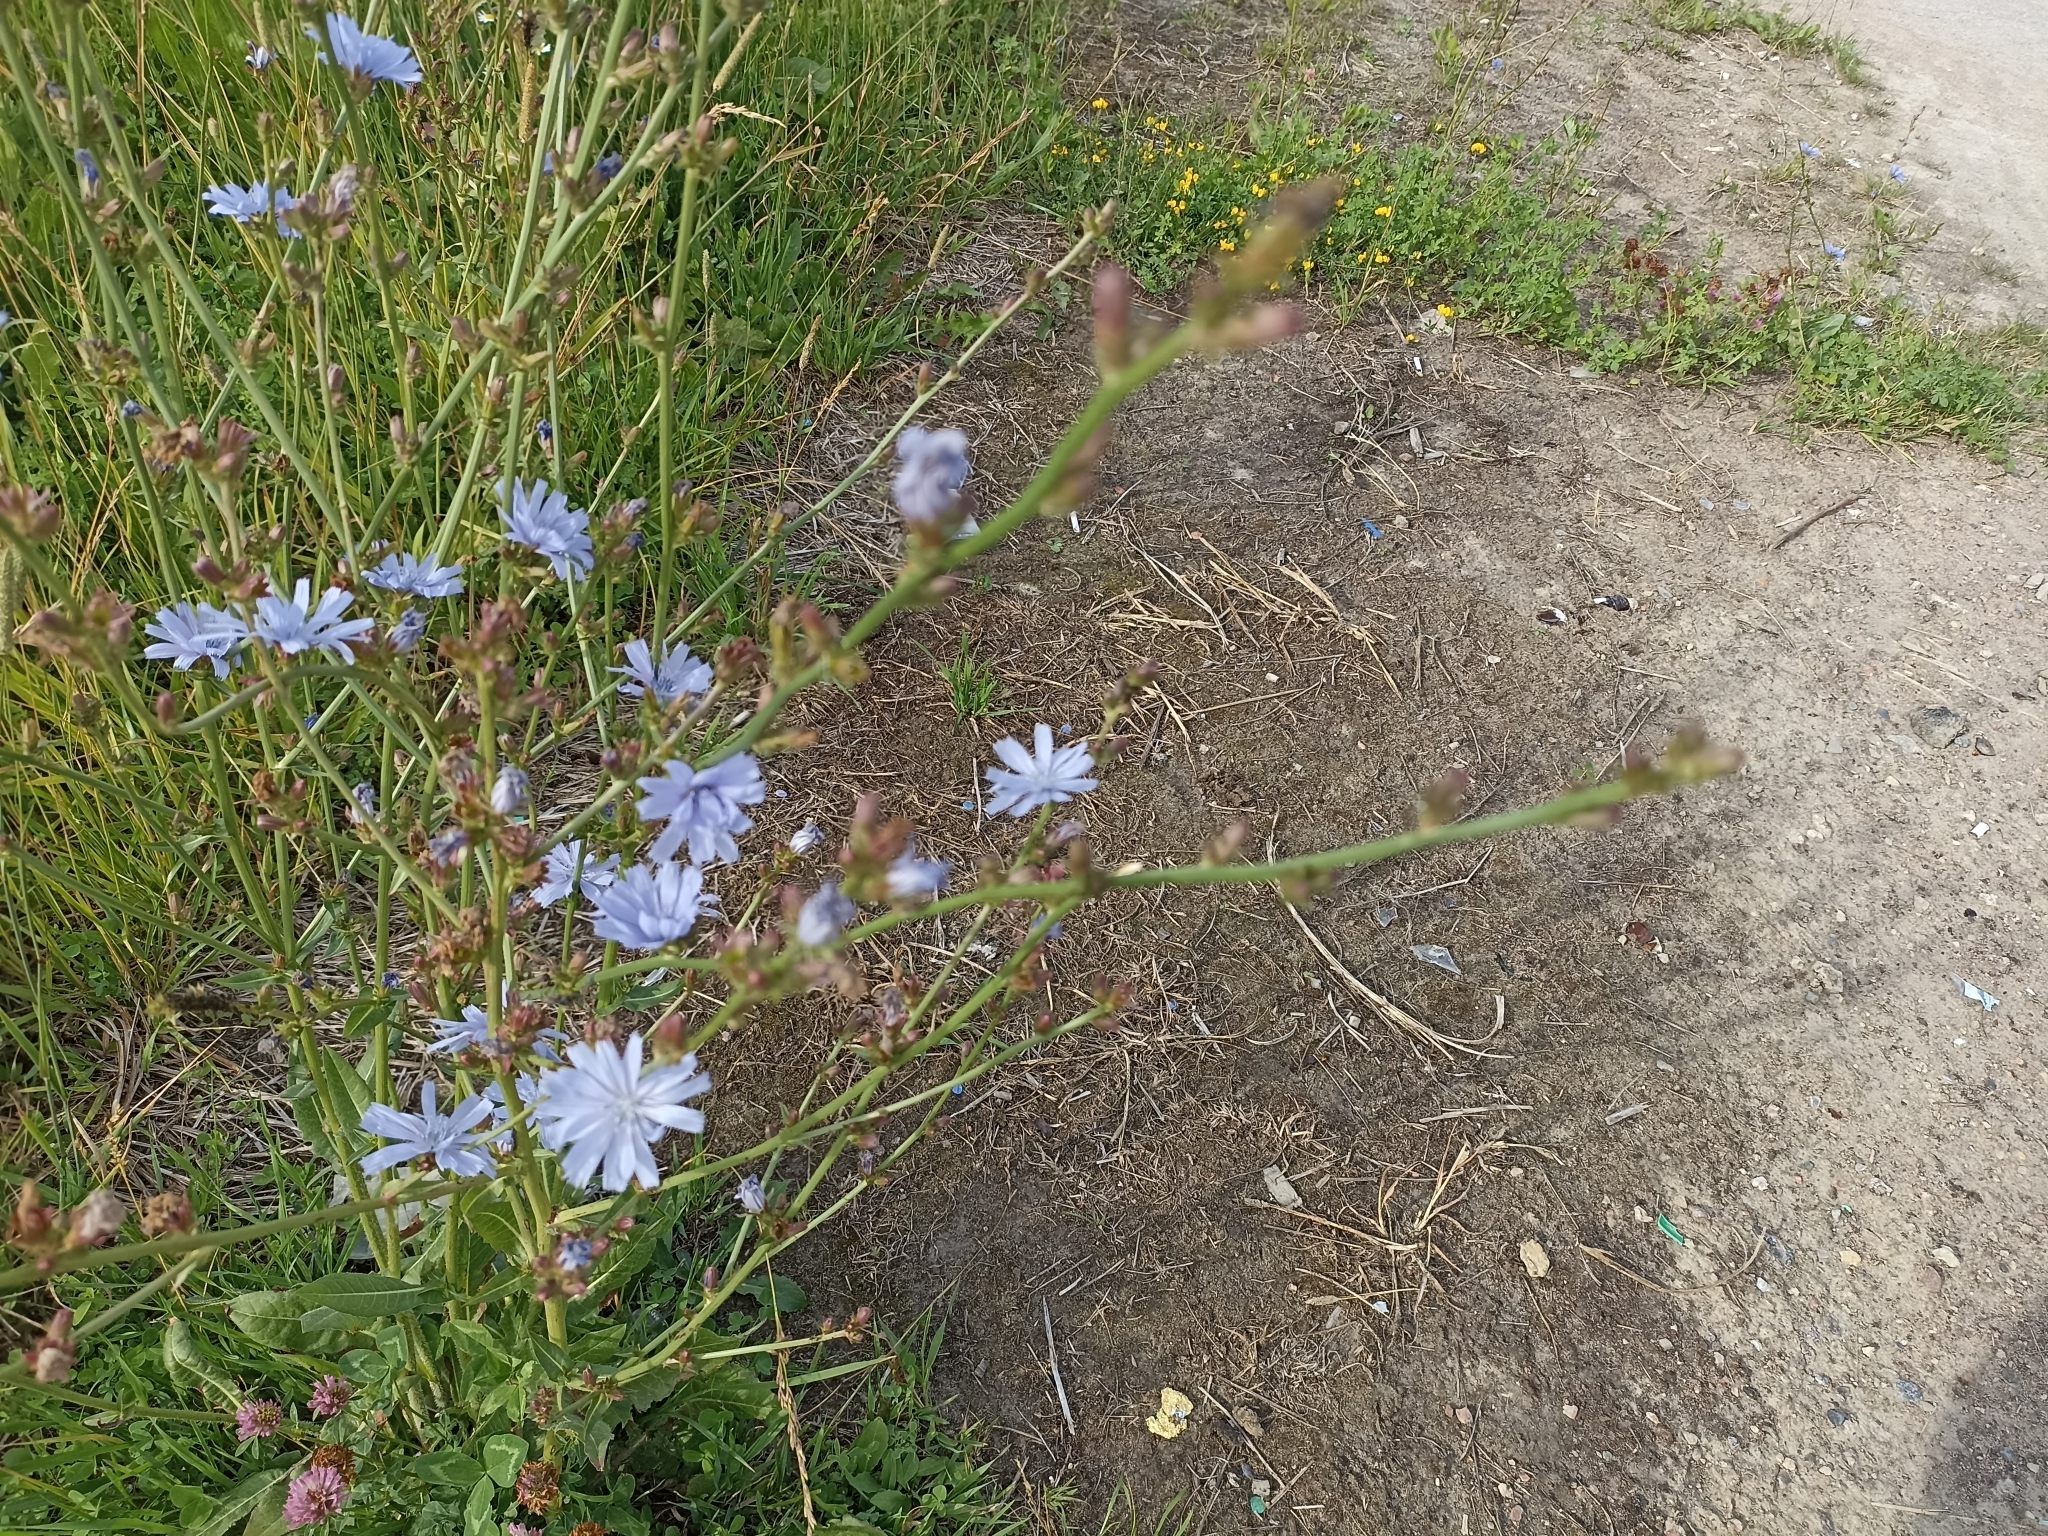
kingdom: Plantae
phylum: Tracheophyta
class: Magnoliopsida
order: Asterales
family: Asteraceae
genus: Cichorium
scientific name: Cichorium intybus
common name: Chicory
